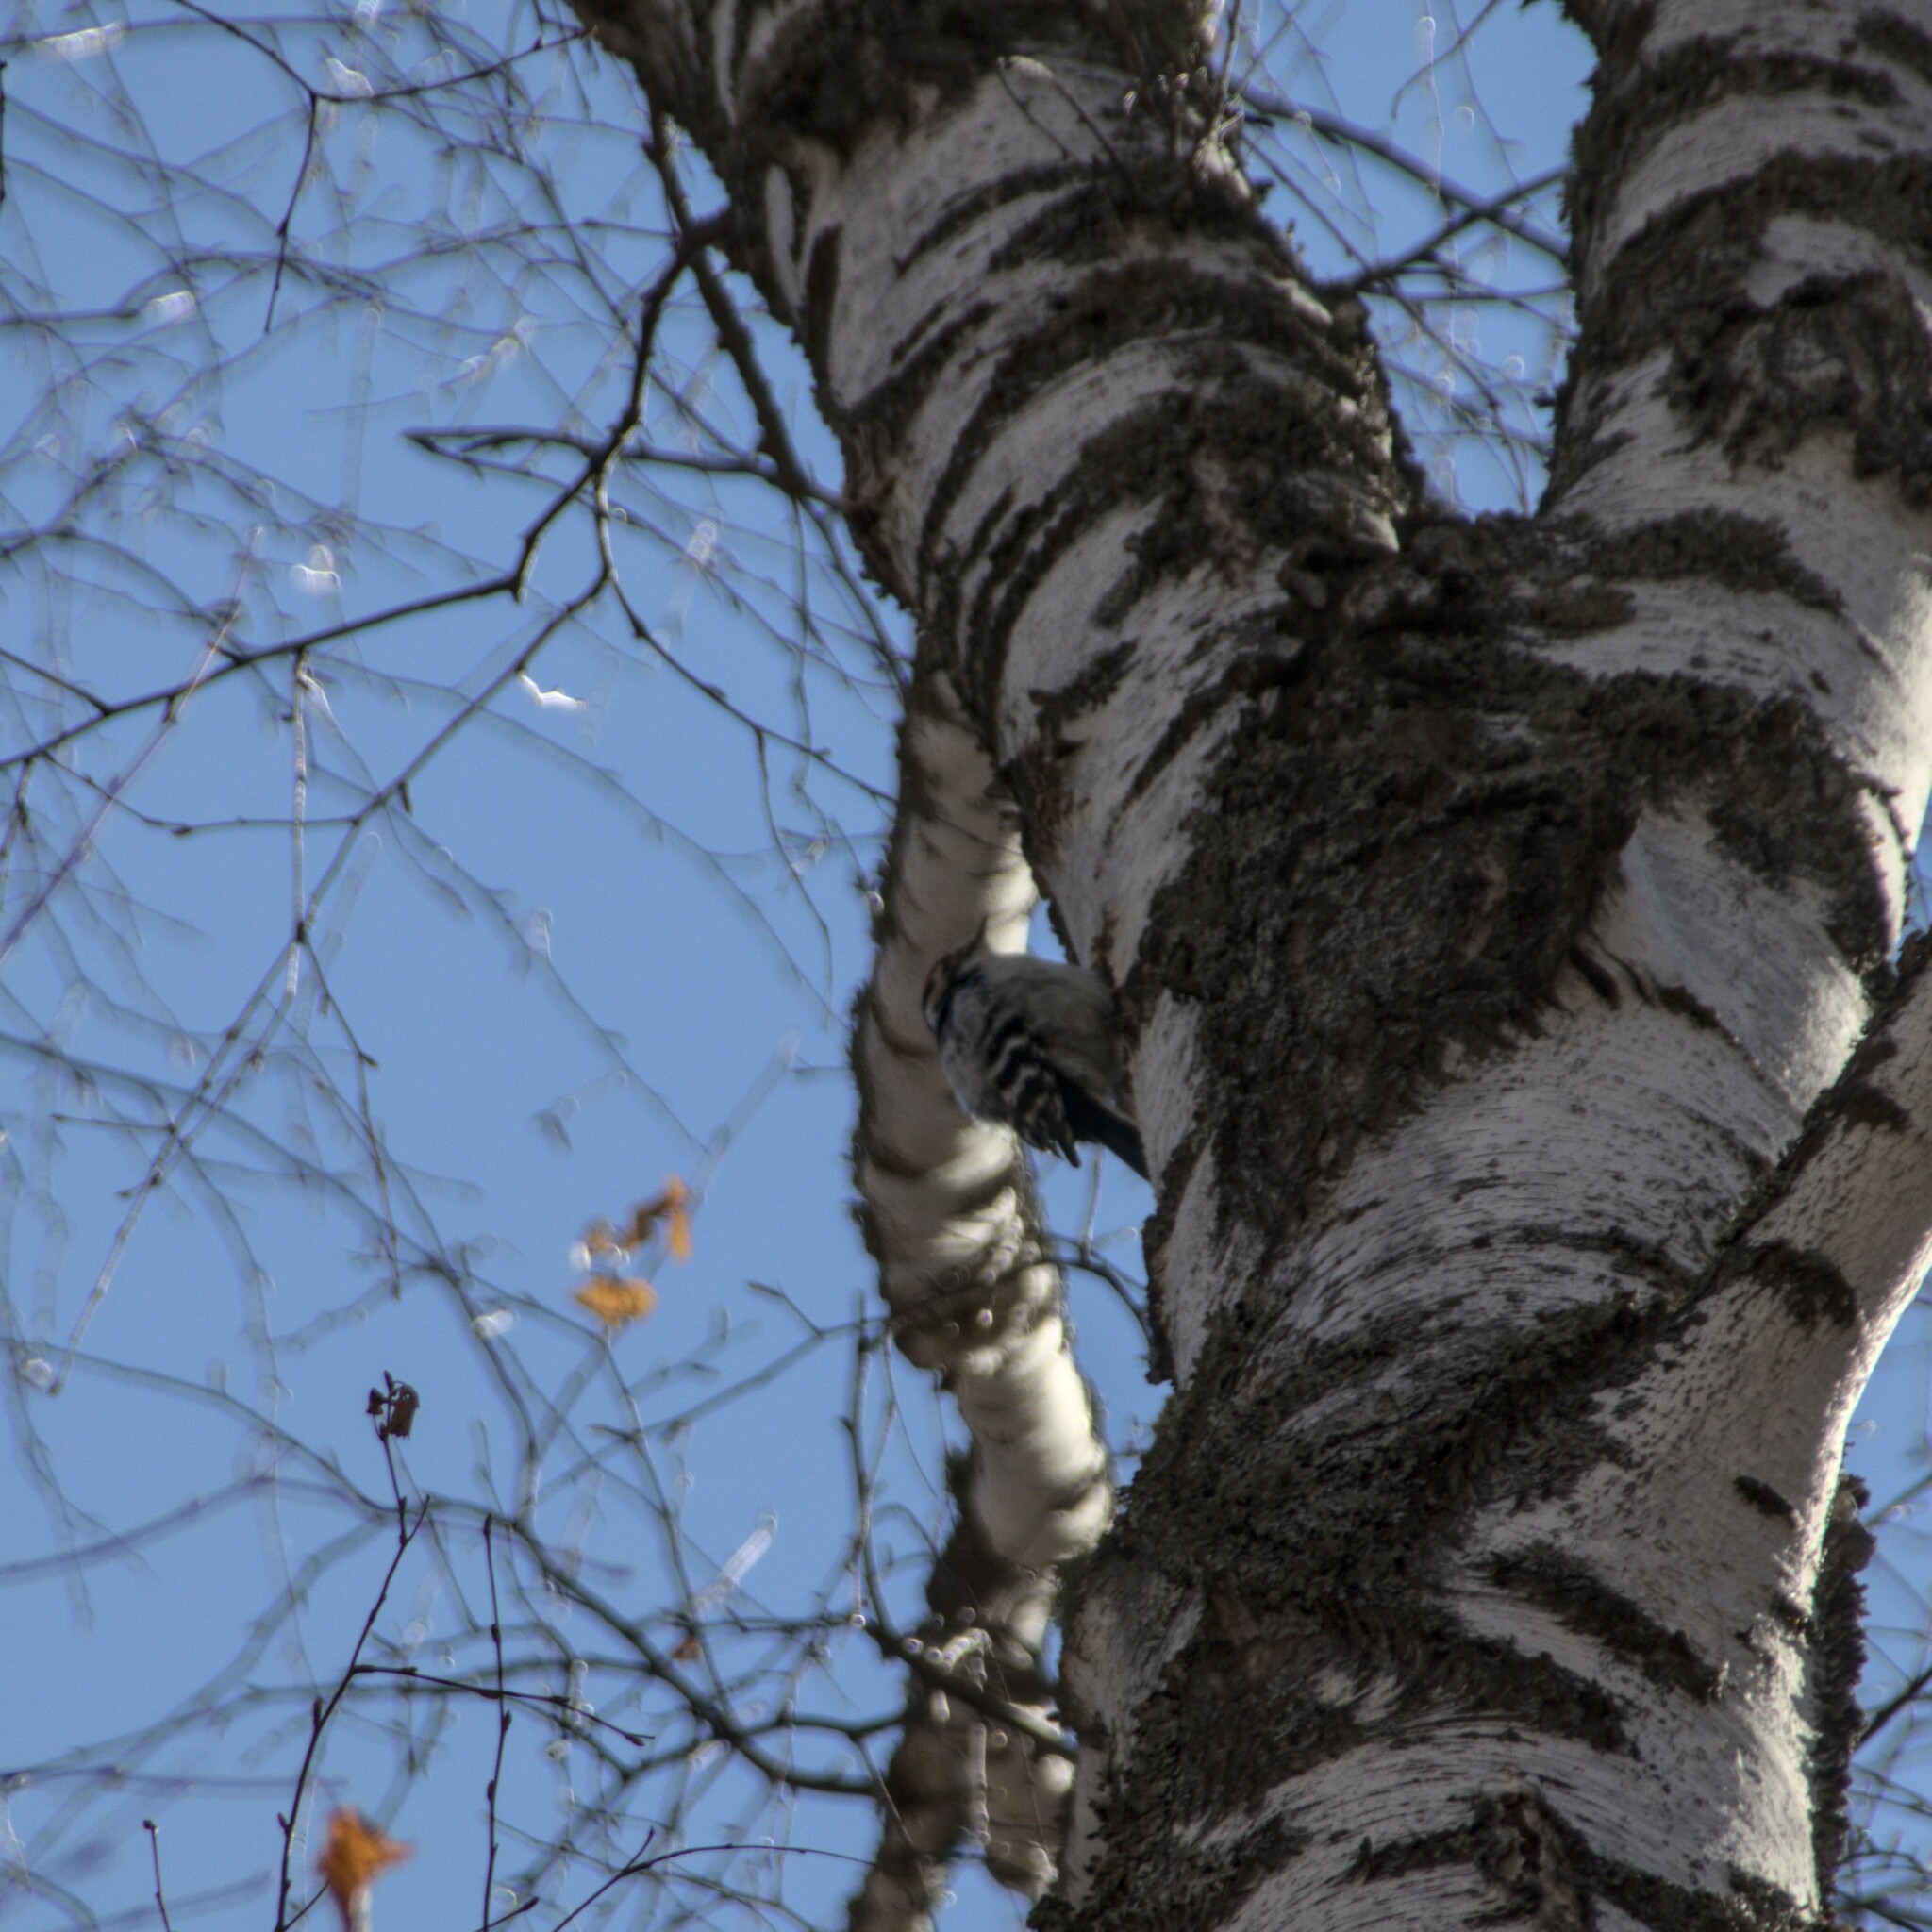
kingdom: Animalia
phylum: Chordata
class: Aves
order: Piciformes
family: Picidae
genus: Dryobates
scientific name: Dryobates minor
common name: Lesser spotted woodpecker
